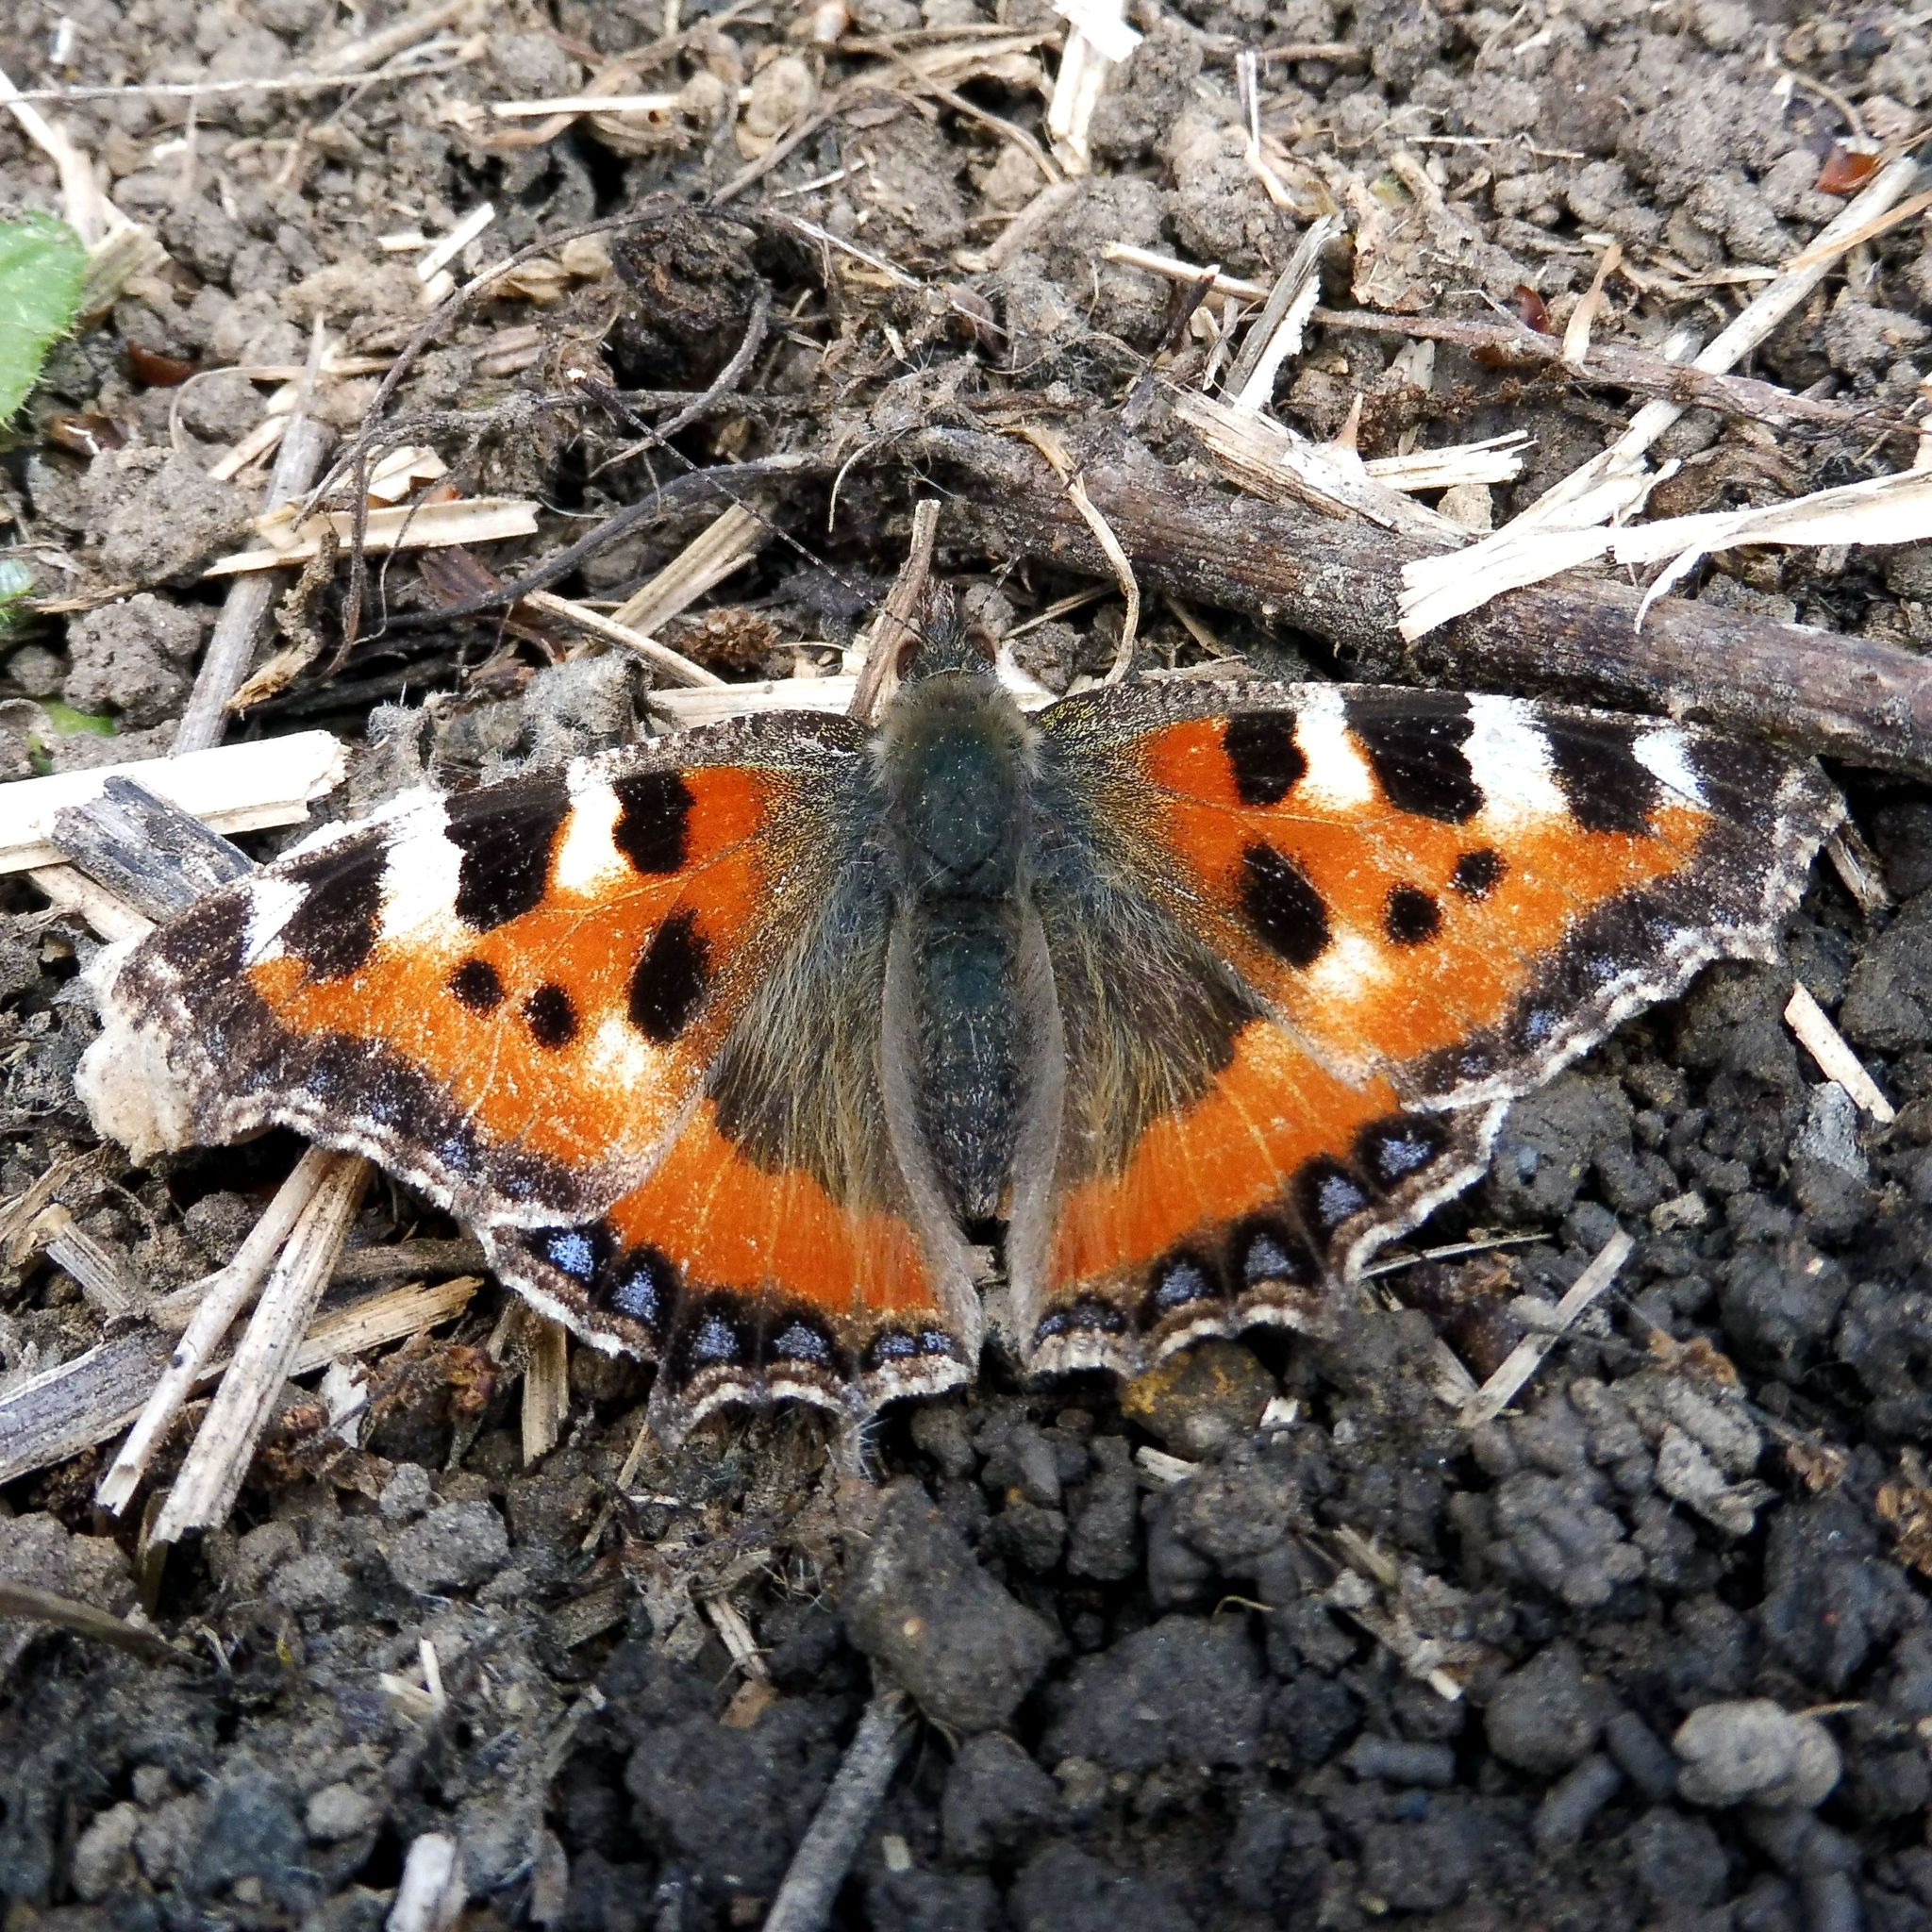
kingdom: Animalia
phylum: Arthropoda
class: Insecta
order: Lepidoptera
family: Nymphalidae
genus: Aglais
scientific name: Aglais urticae
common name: Small tortoiseshell
